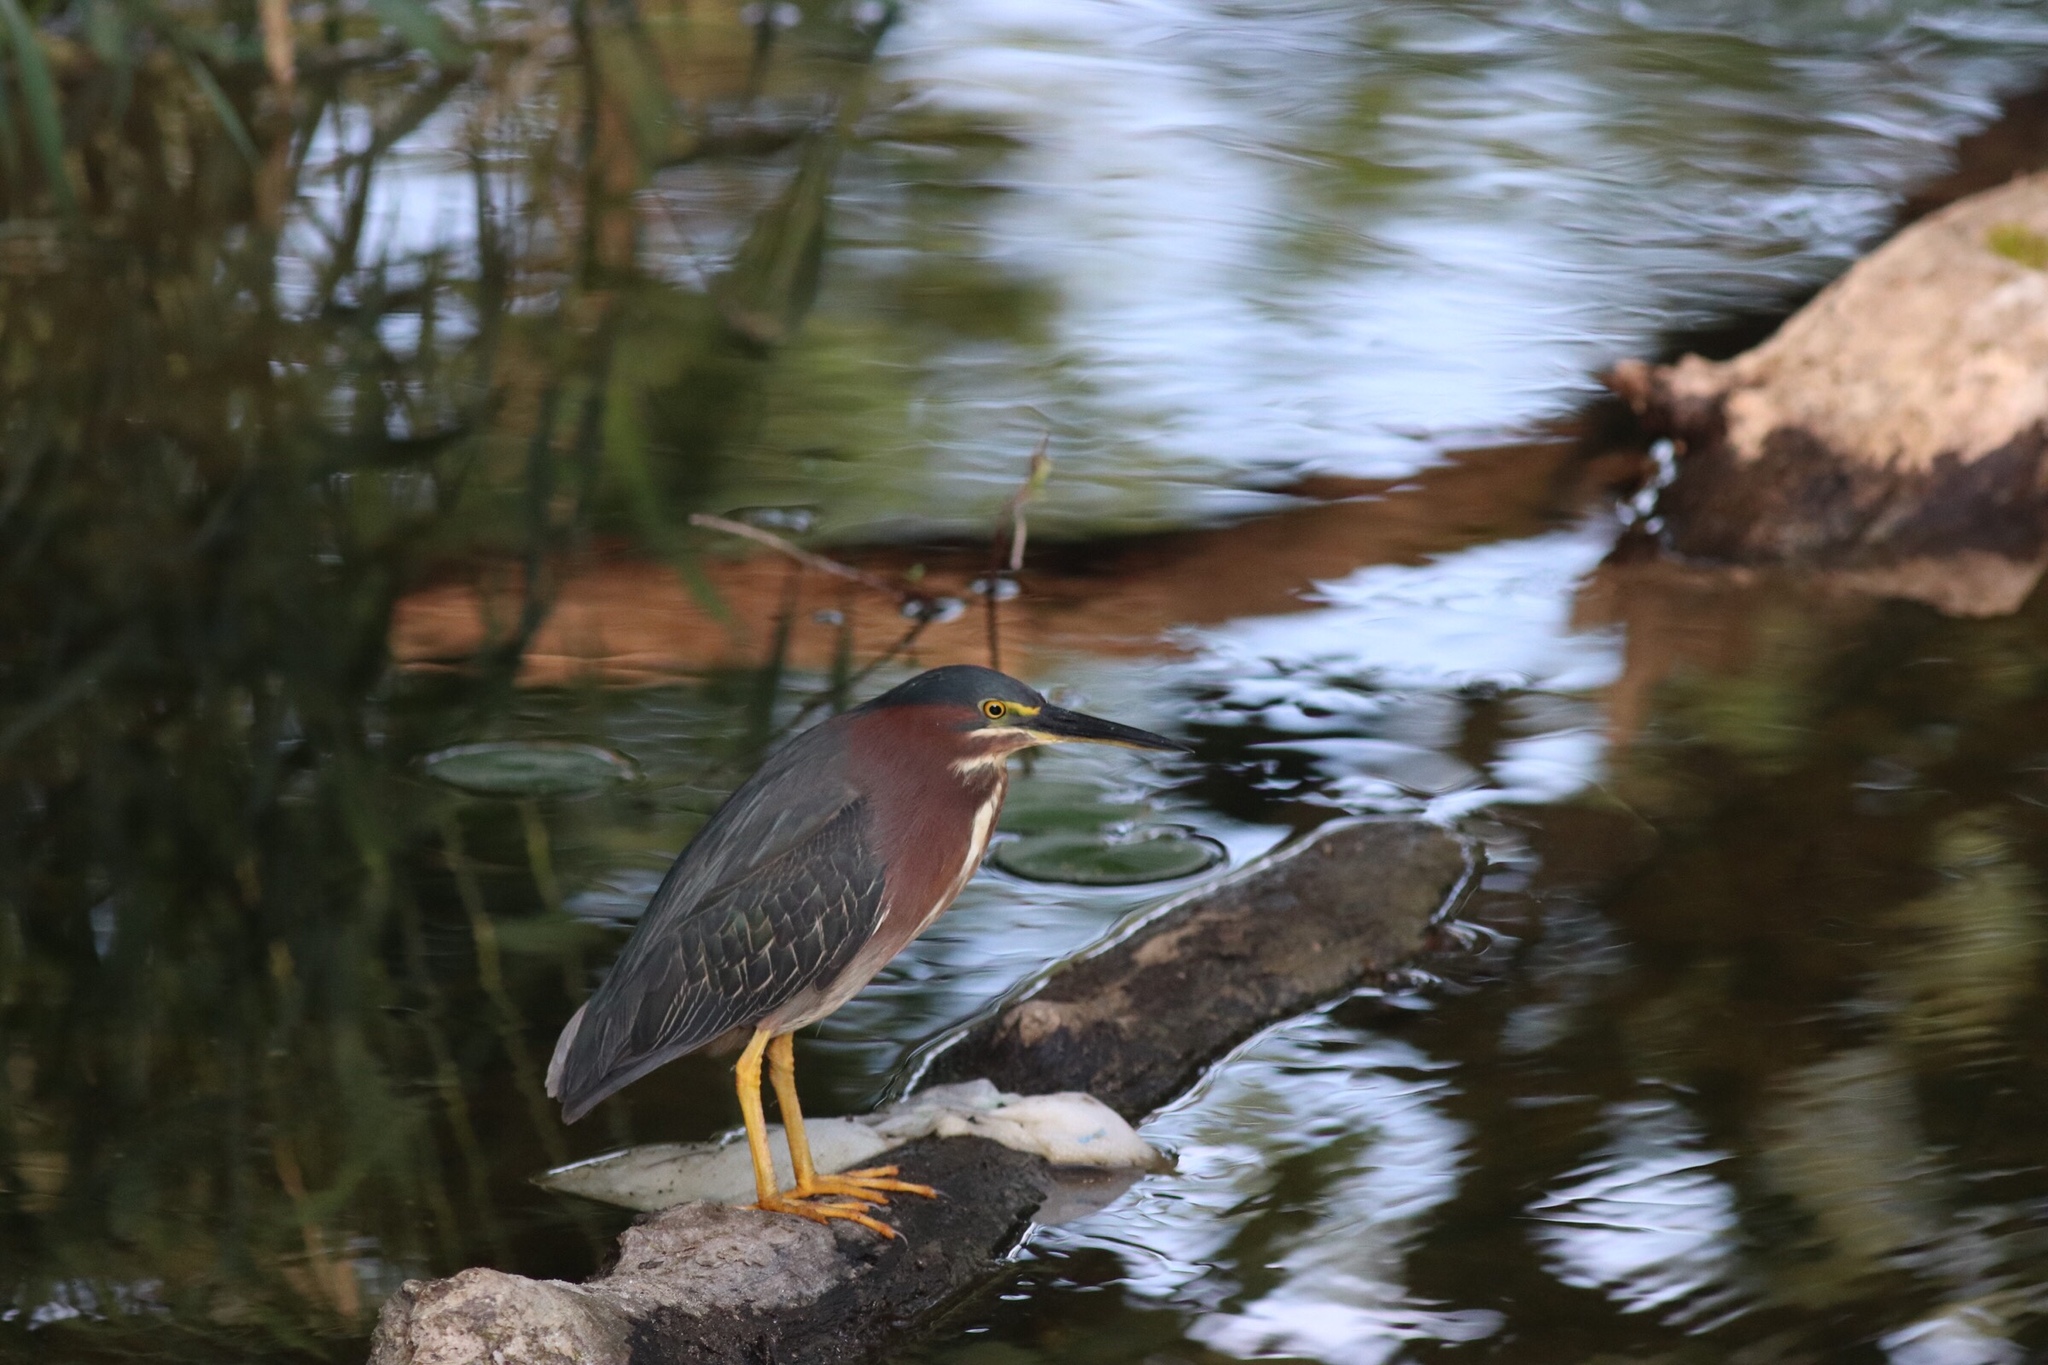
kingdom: Animalia
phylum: Chordata
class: Aves
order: Pelecaniformes
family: Ardeidae
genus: Butorides
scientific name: Butorides virescens
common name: Green heron
